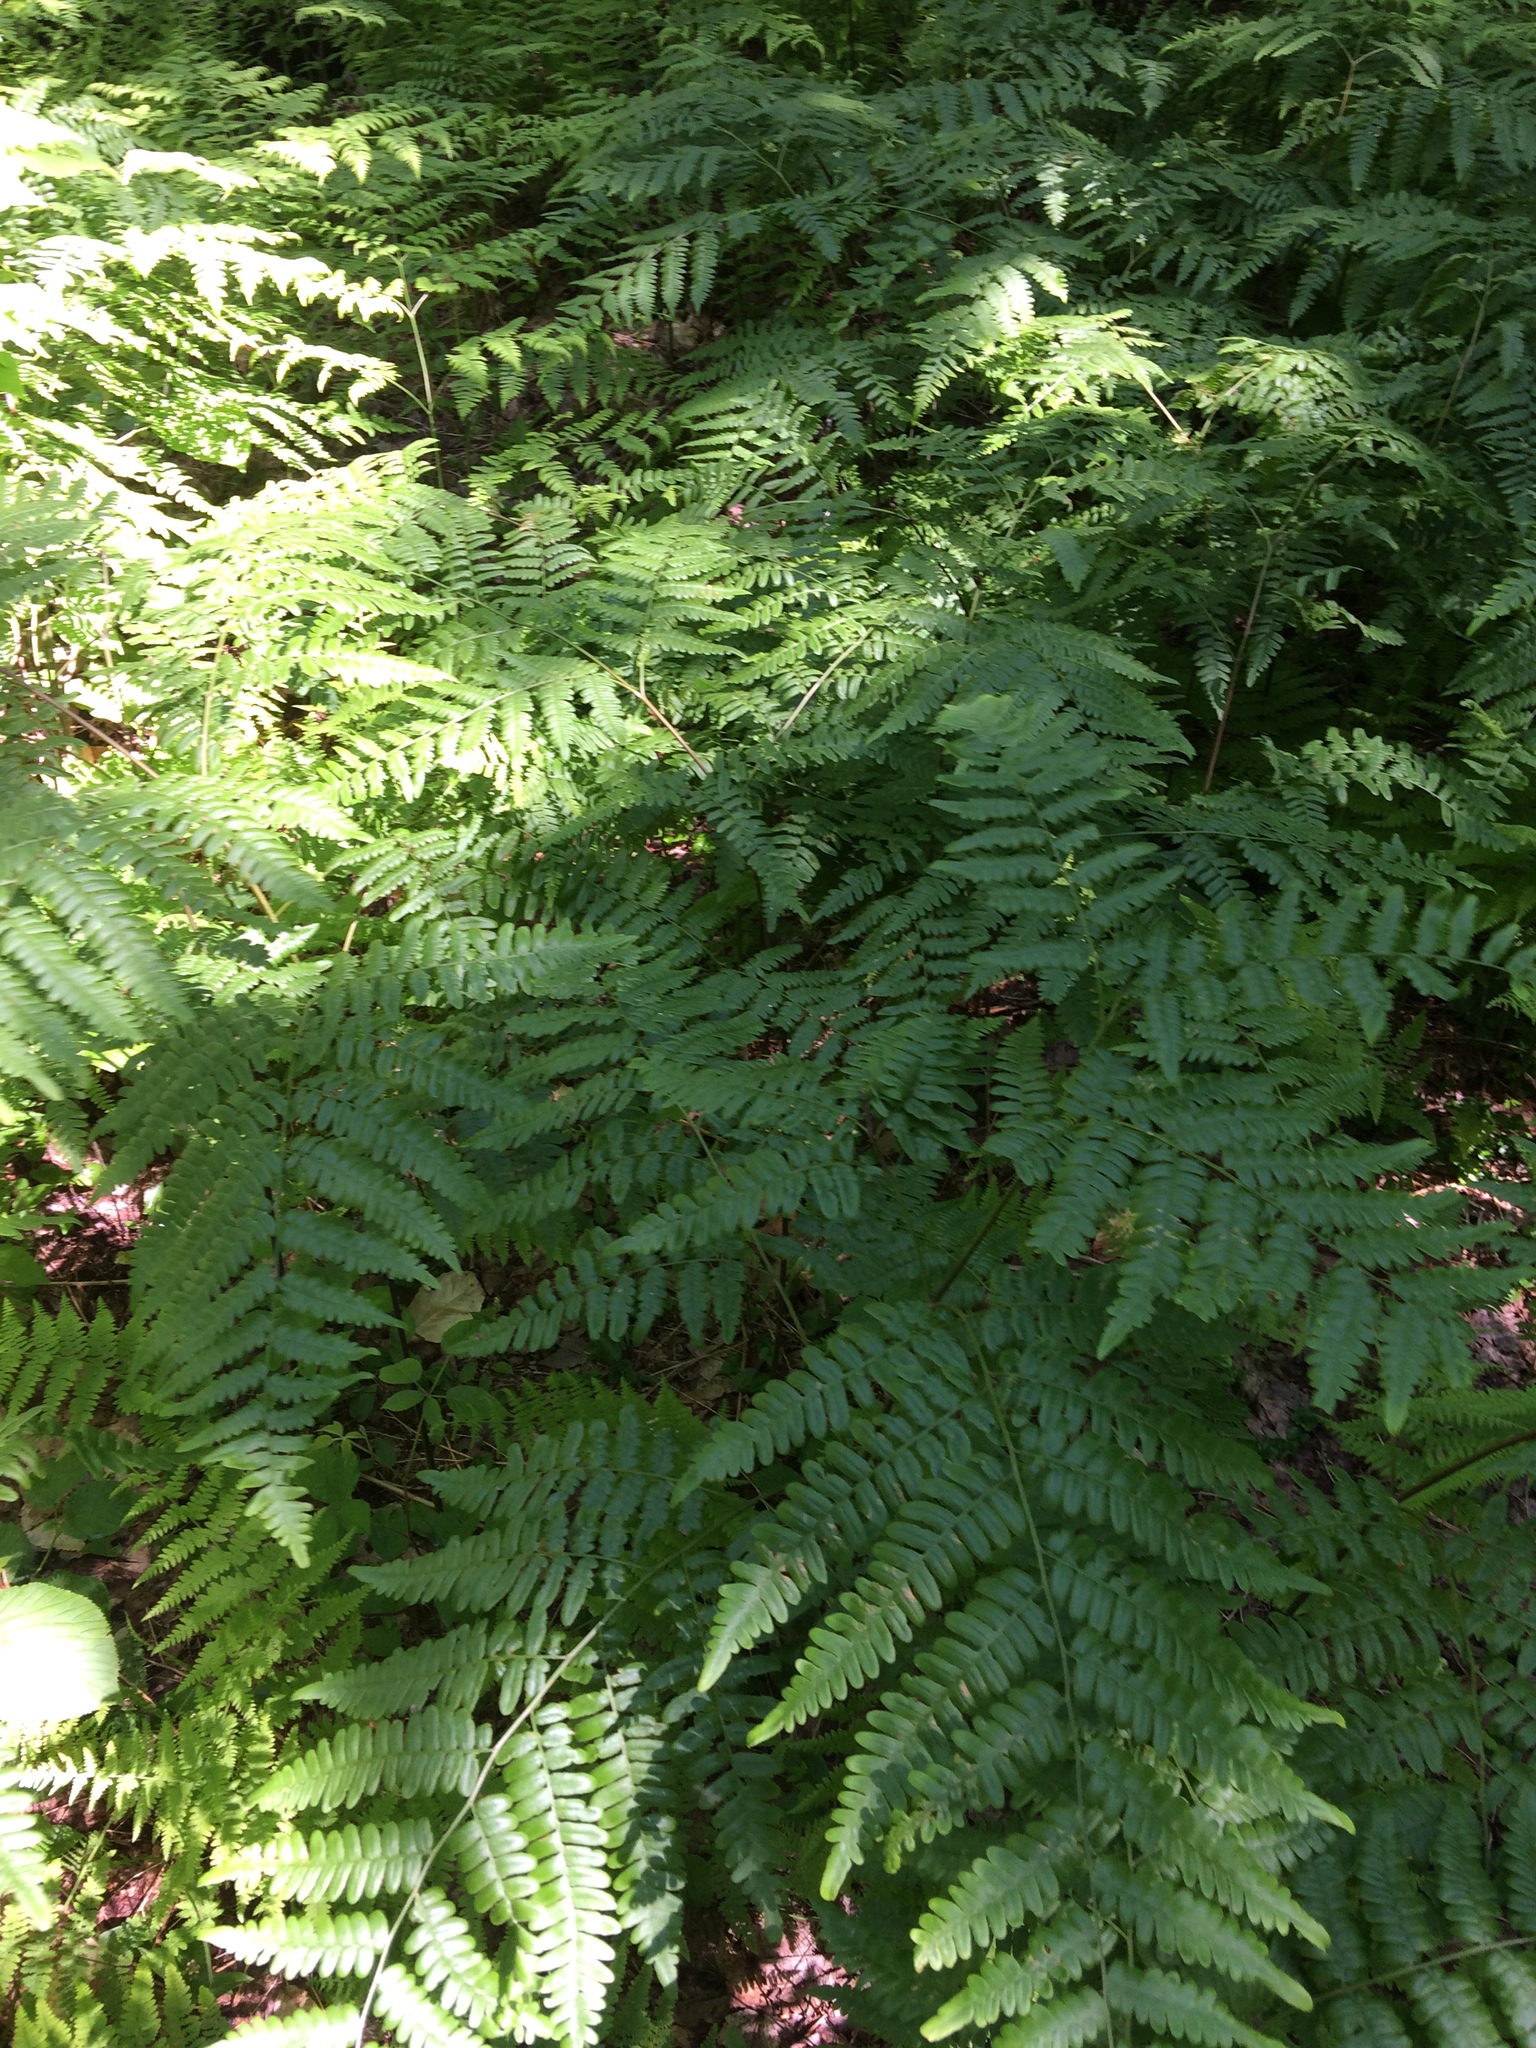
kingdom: Plantae
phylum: Tracheophyta
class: Polypodiopsida
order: Polypodiales
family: Dennstaedtiaceae
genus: Pteridium
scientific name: Pteridium aquilinum
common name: Bracken
